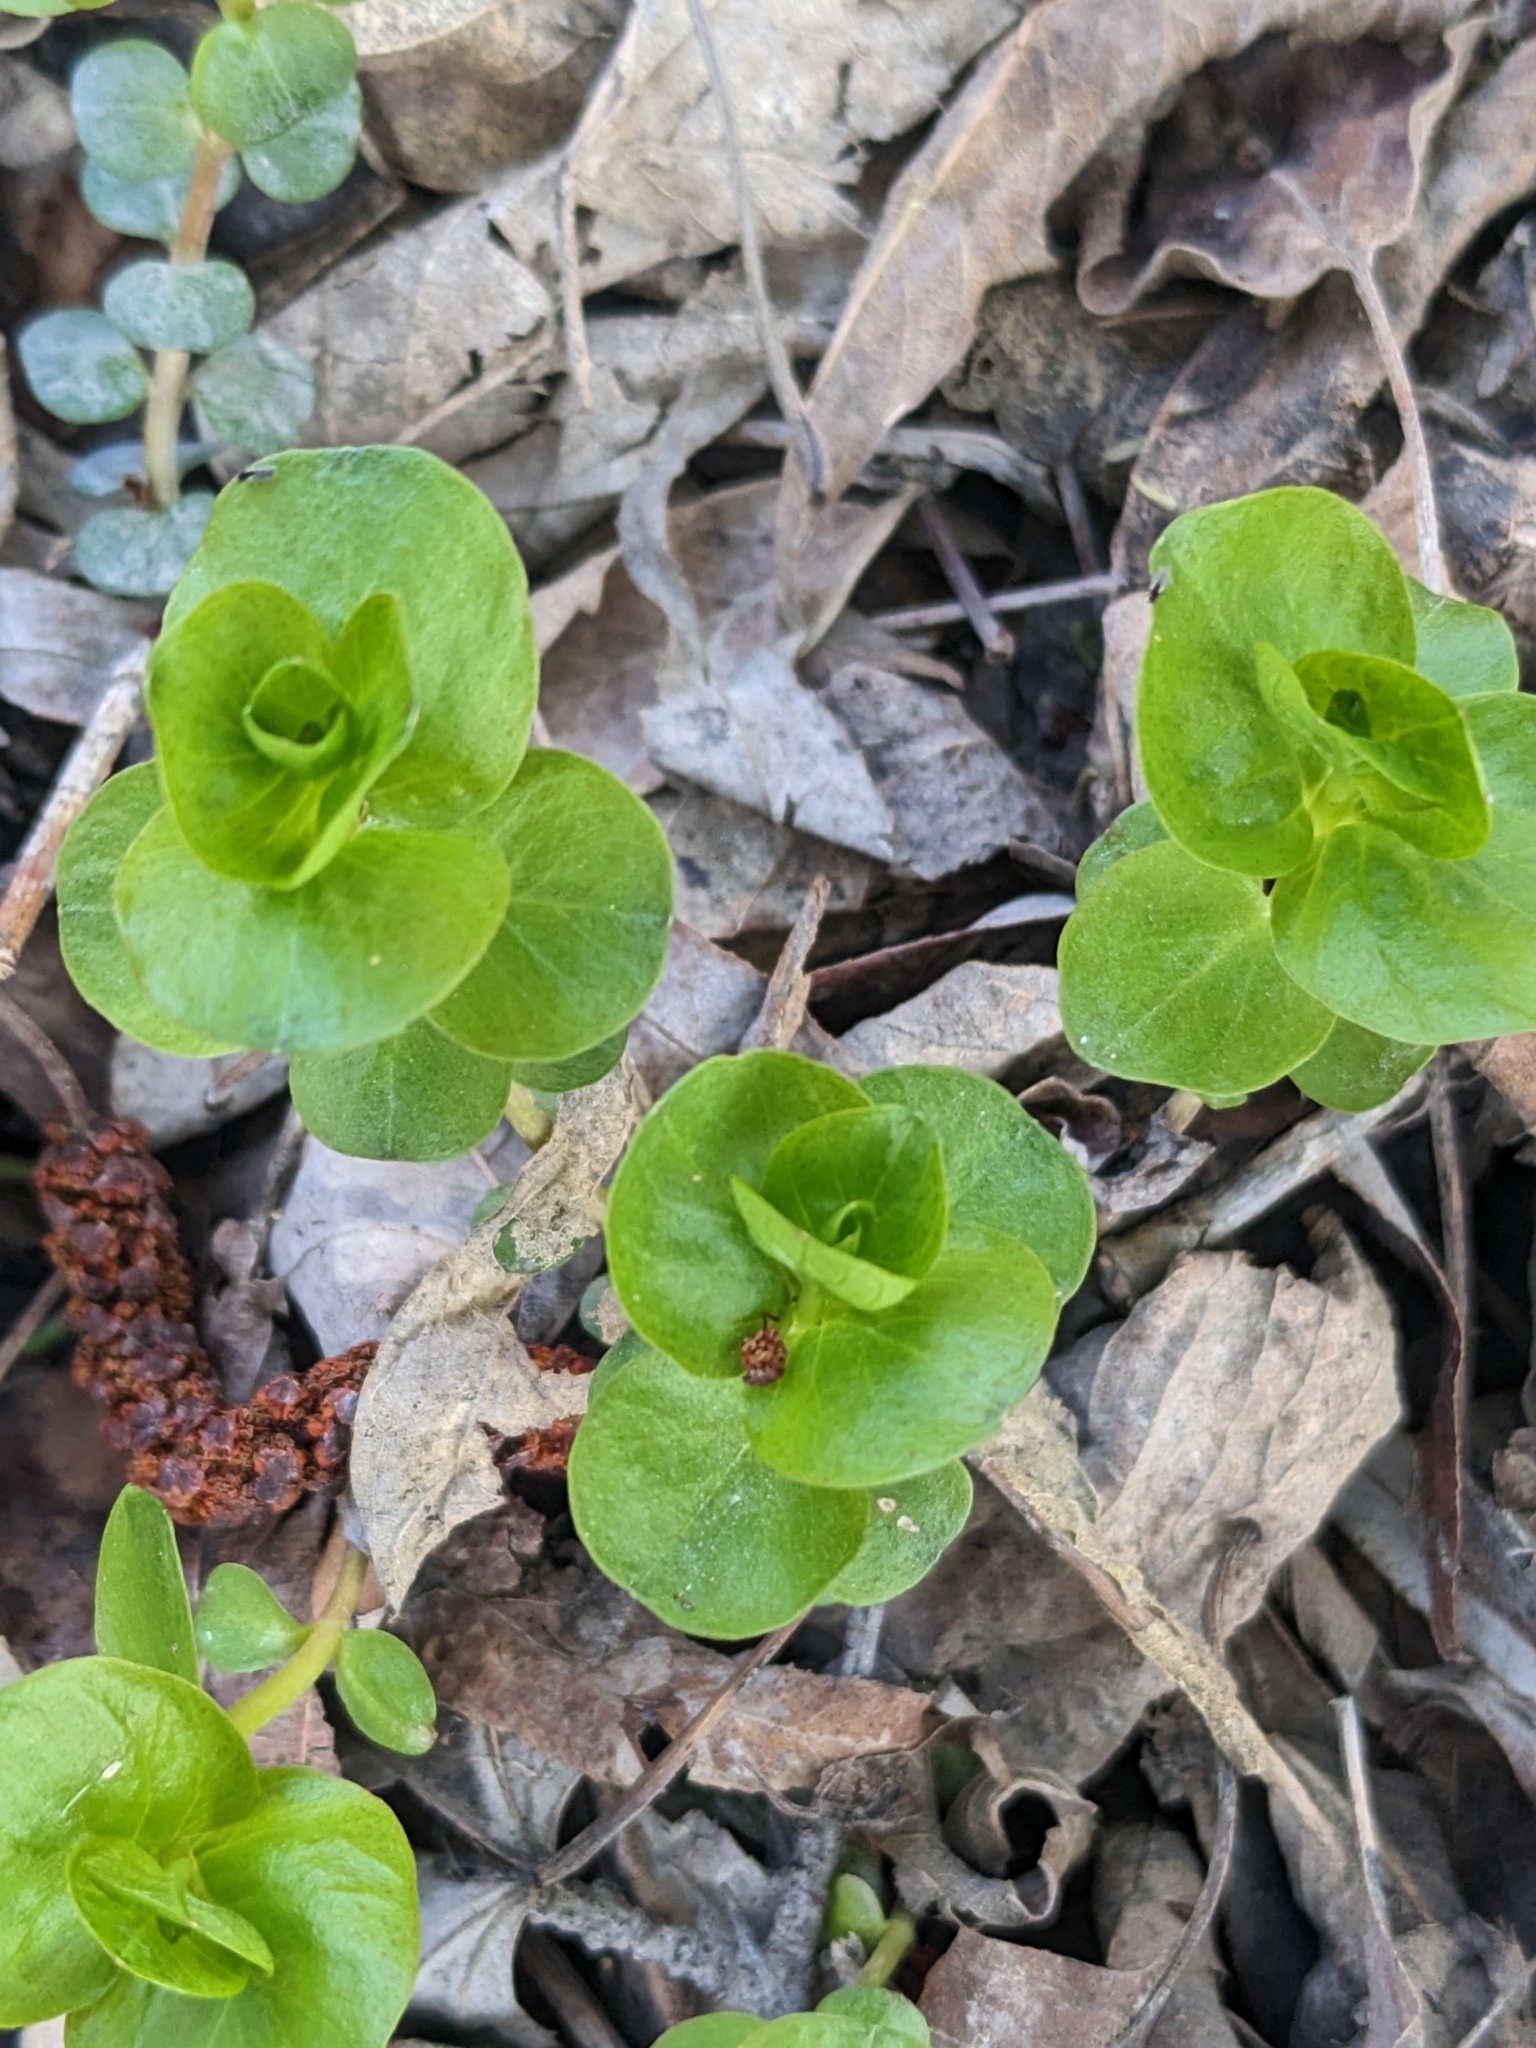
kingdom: Plantae
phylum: Tracheophyta
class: Magnoliopsida
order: Ericales
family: Primulaceae
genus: Lysimachia
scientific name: Lysimachia nummularia
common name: Moneywort
